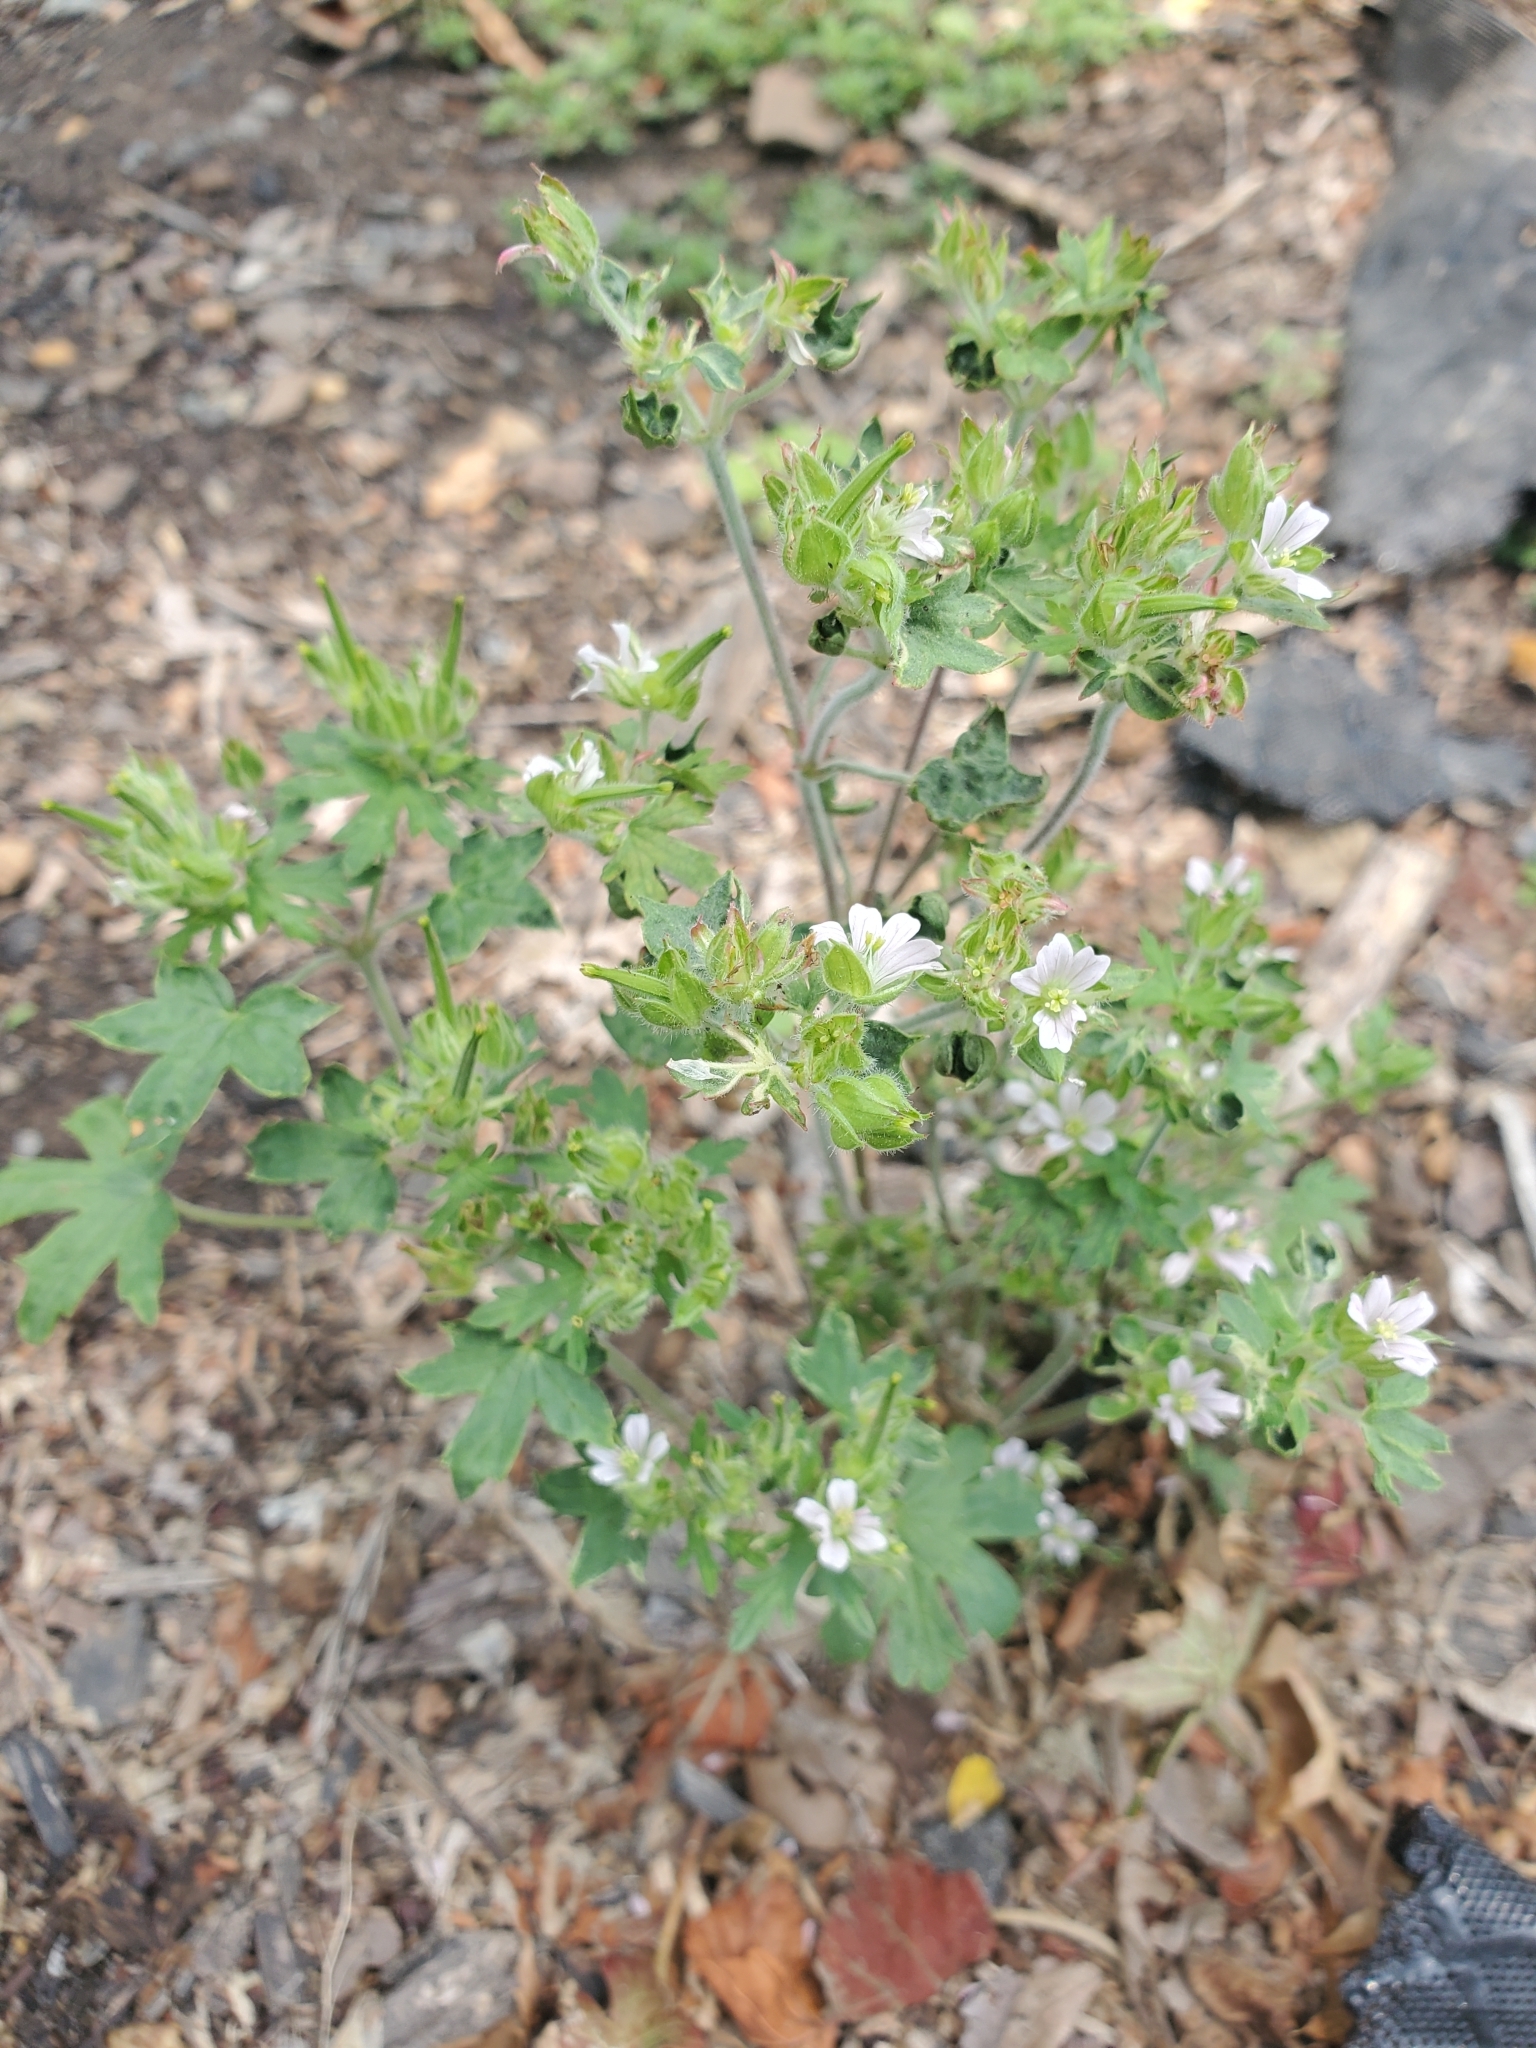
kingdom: Plantae
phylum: Tracheophyta
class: Magnoliopsida
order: Geraniales
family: Geraniaceae
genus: Geranium
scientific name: Geranium carolinianum
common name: Carolina crane's-bill
